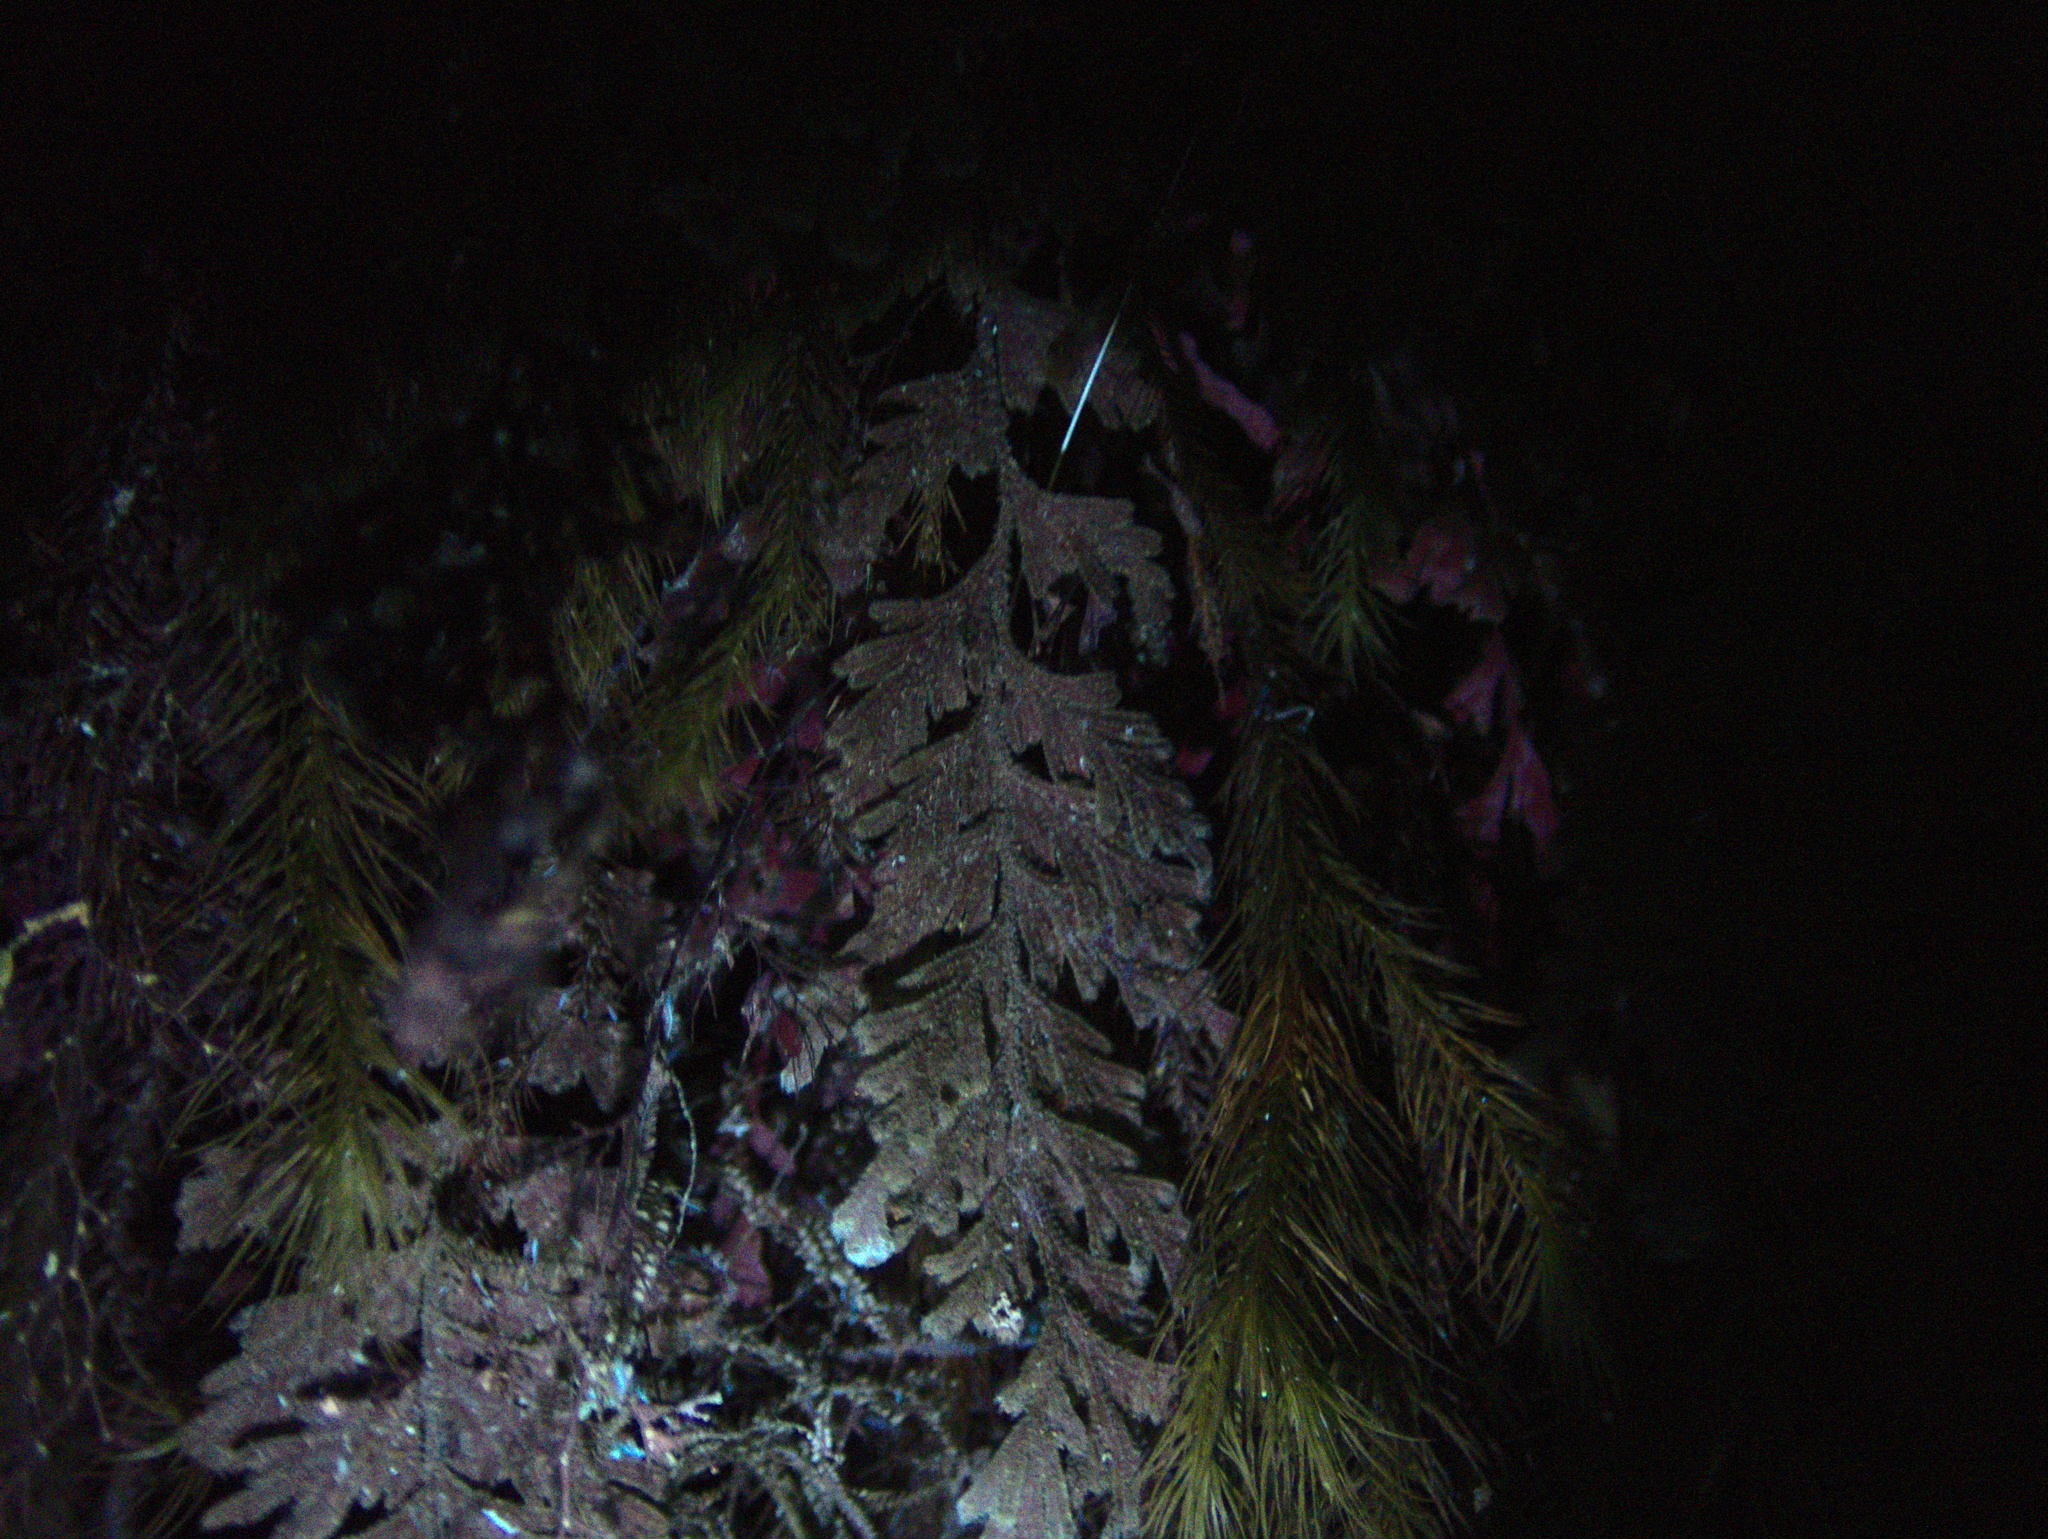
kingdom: Plantae
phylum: Tracheophyta
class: Polypodiopsida
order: Hymenophyllales
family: Hymenophyllaceae
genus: Hymenophyllum
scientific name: Hymenophyllum frankliniae
